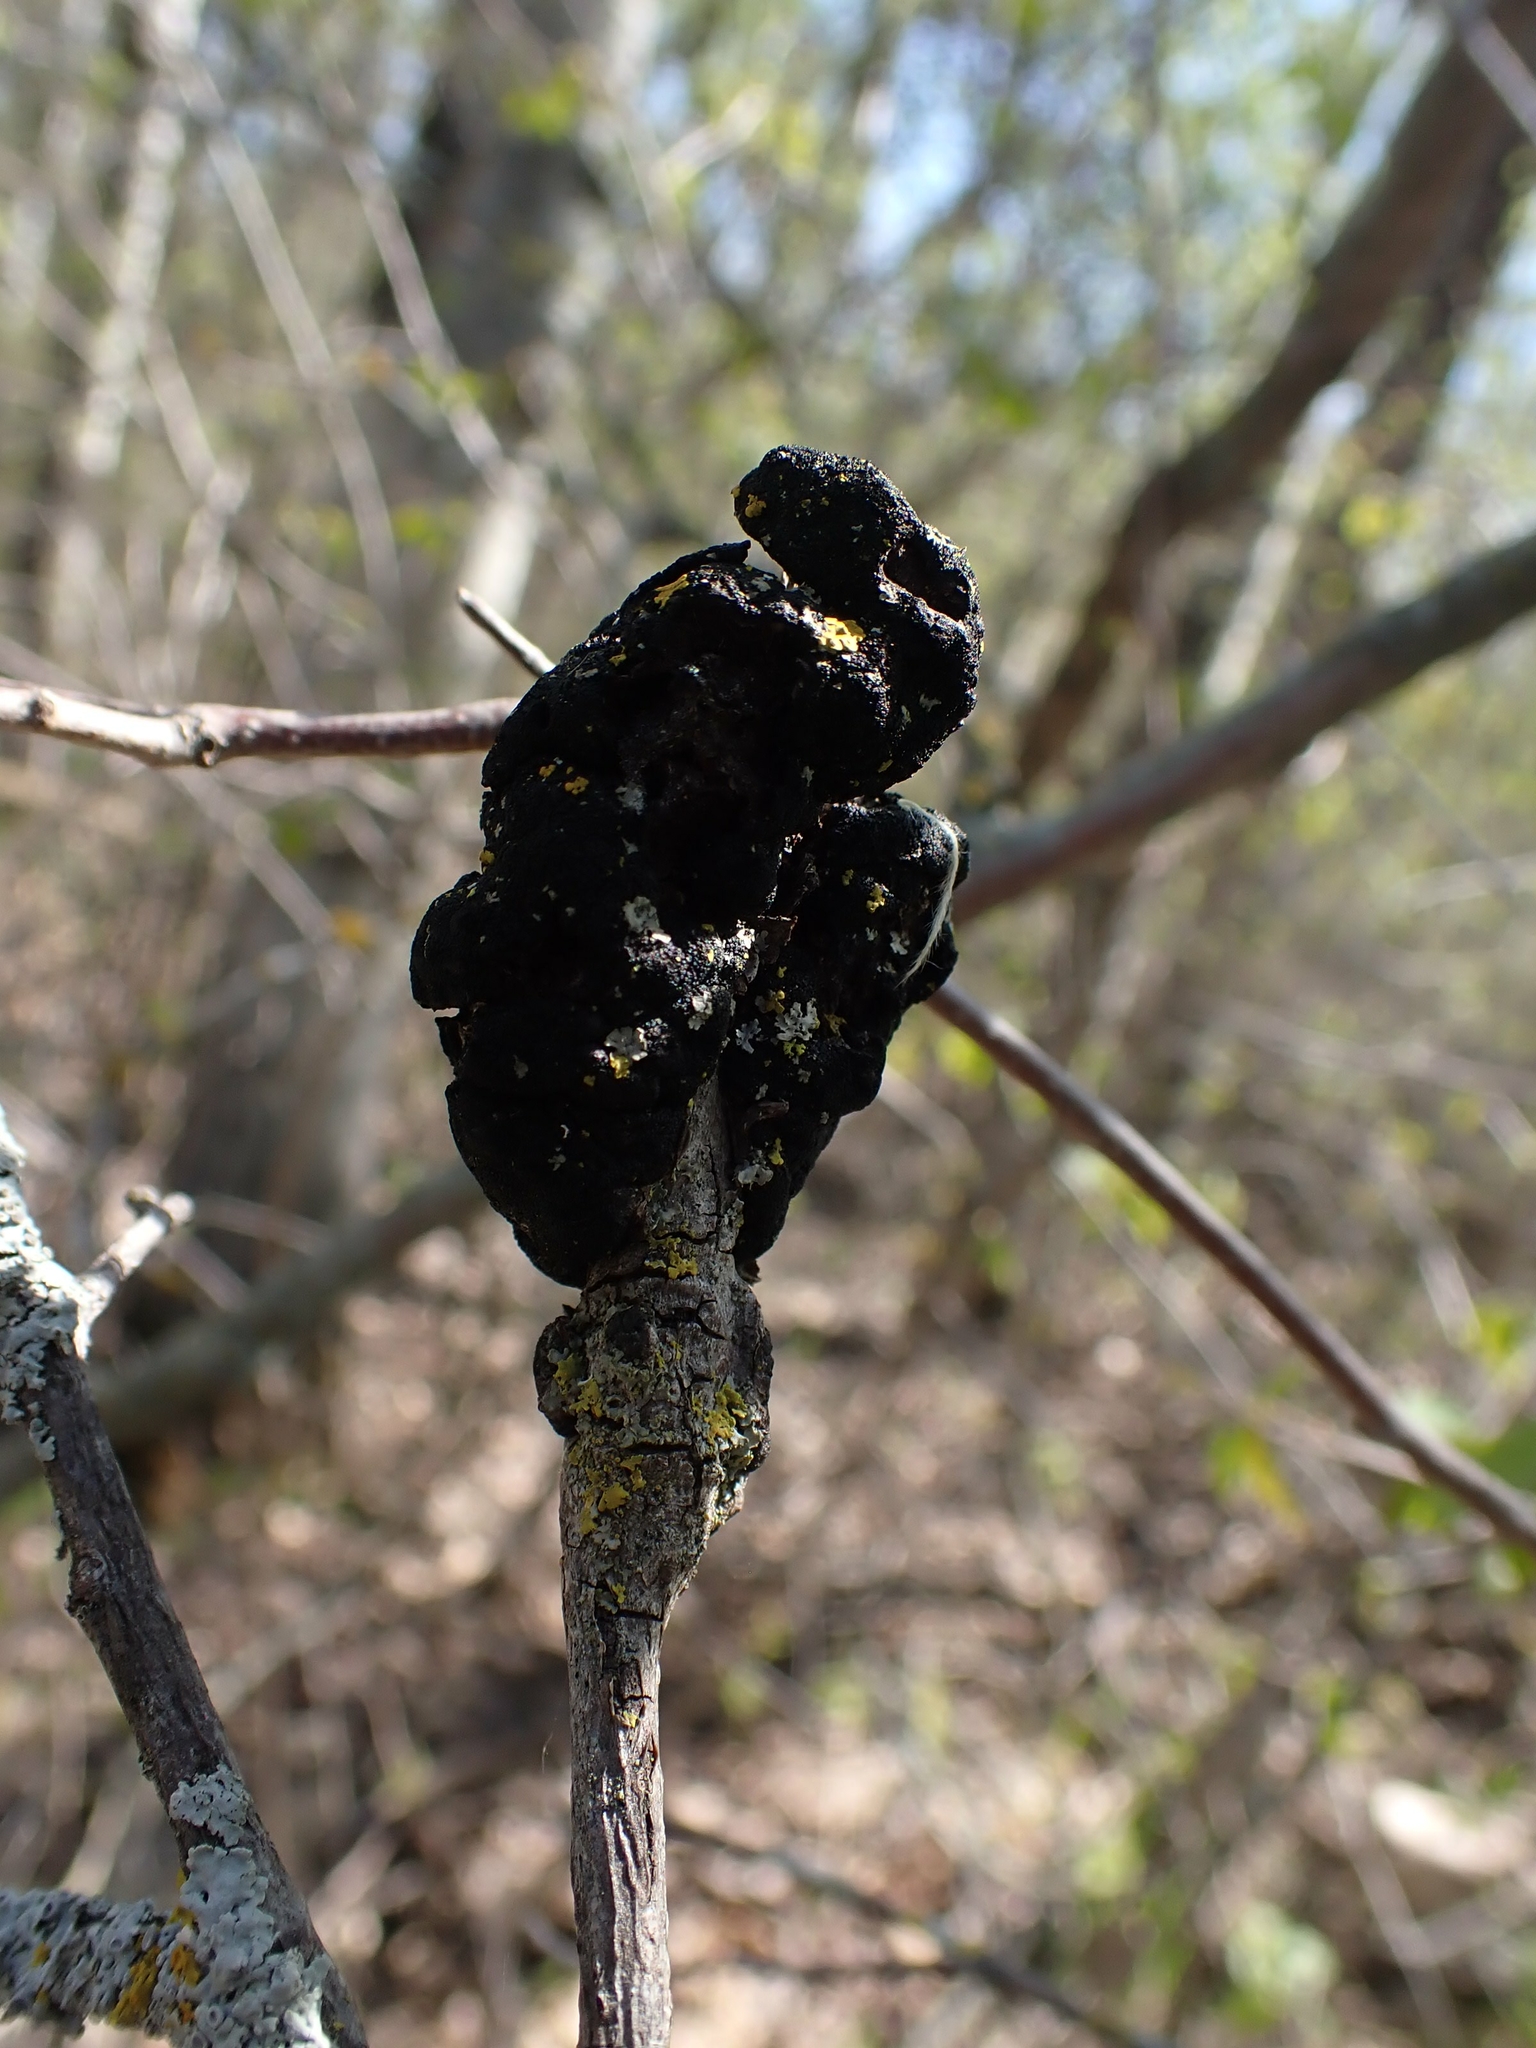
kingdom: Fungi
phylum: Ascomycota
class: Dothideomycetes
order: Venturiales
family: Venturiaceae
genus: Apiosporina
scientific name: Apiosporina morbosa
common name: Black knot
